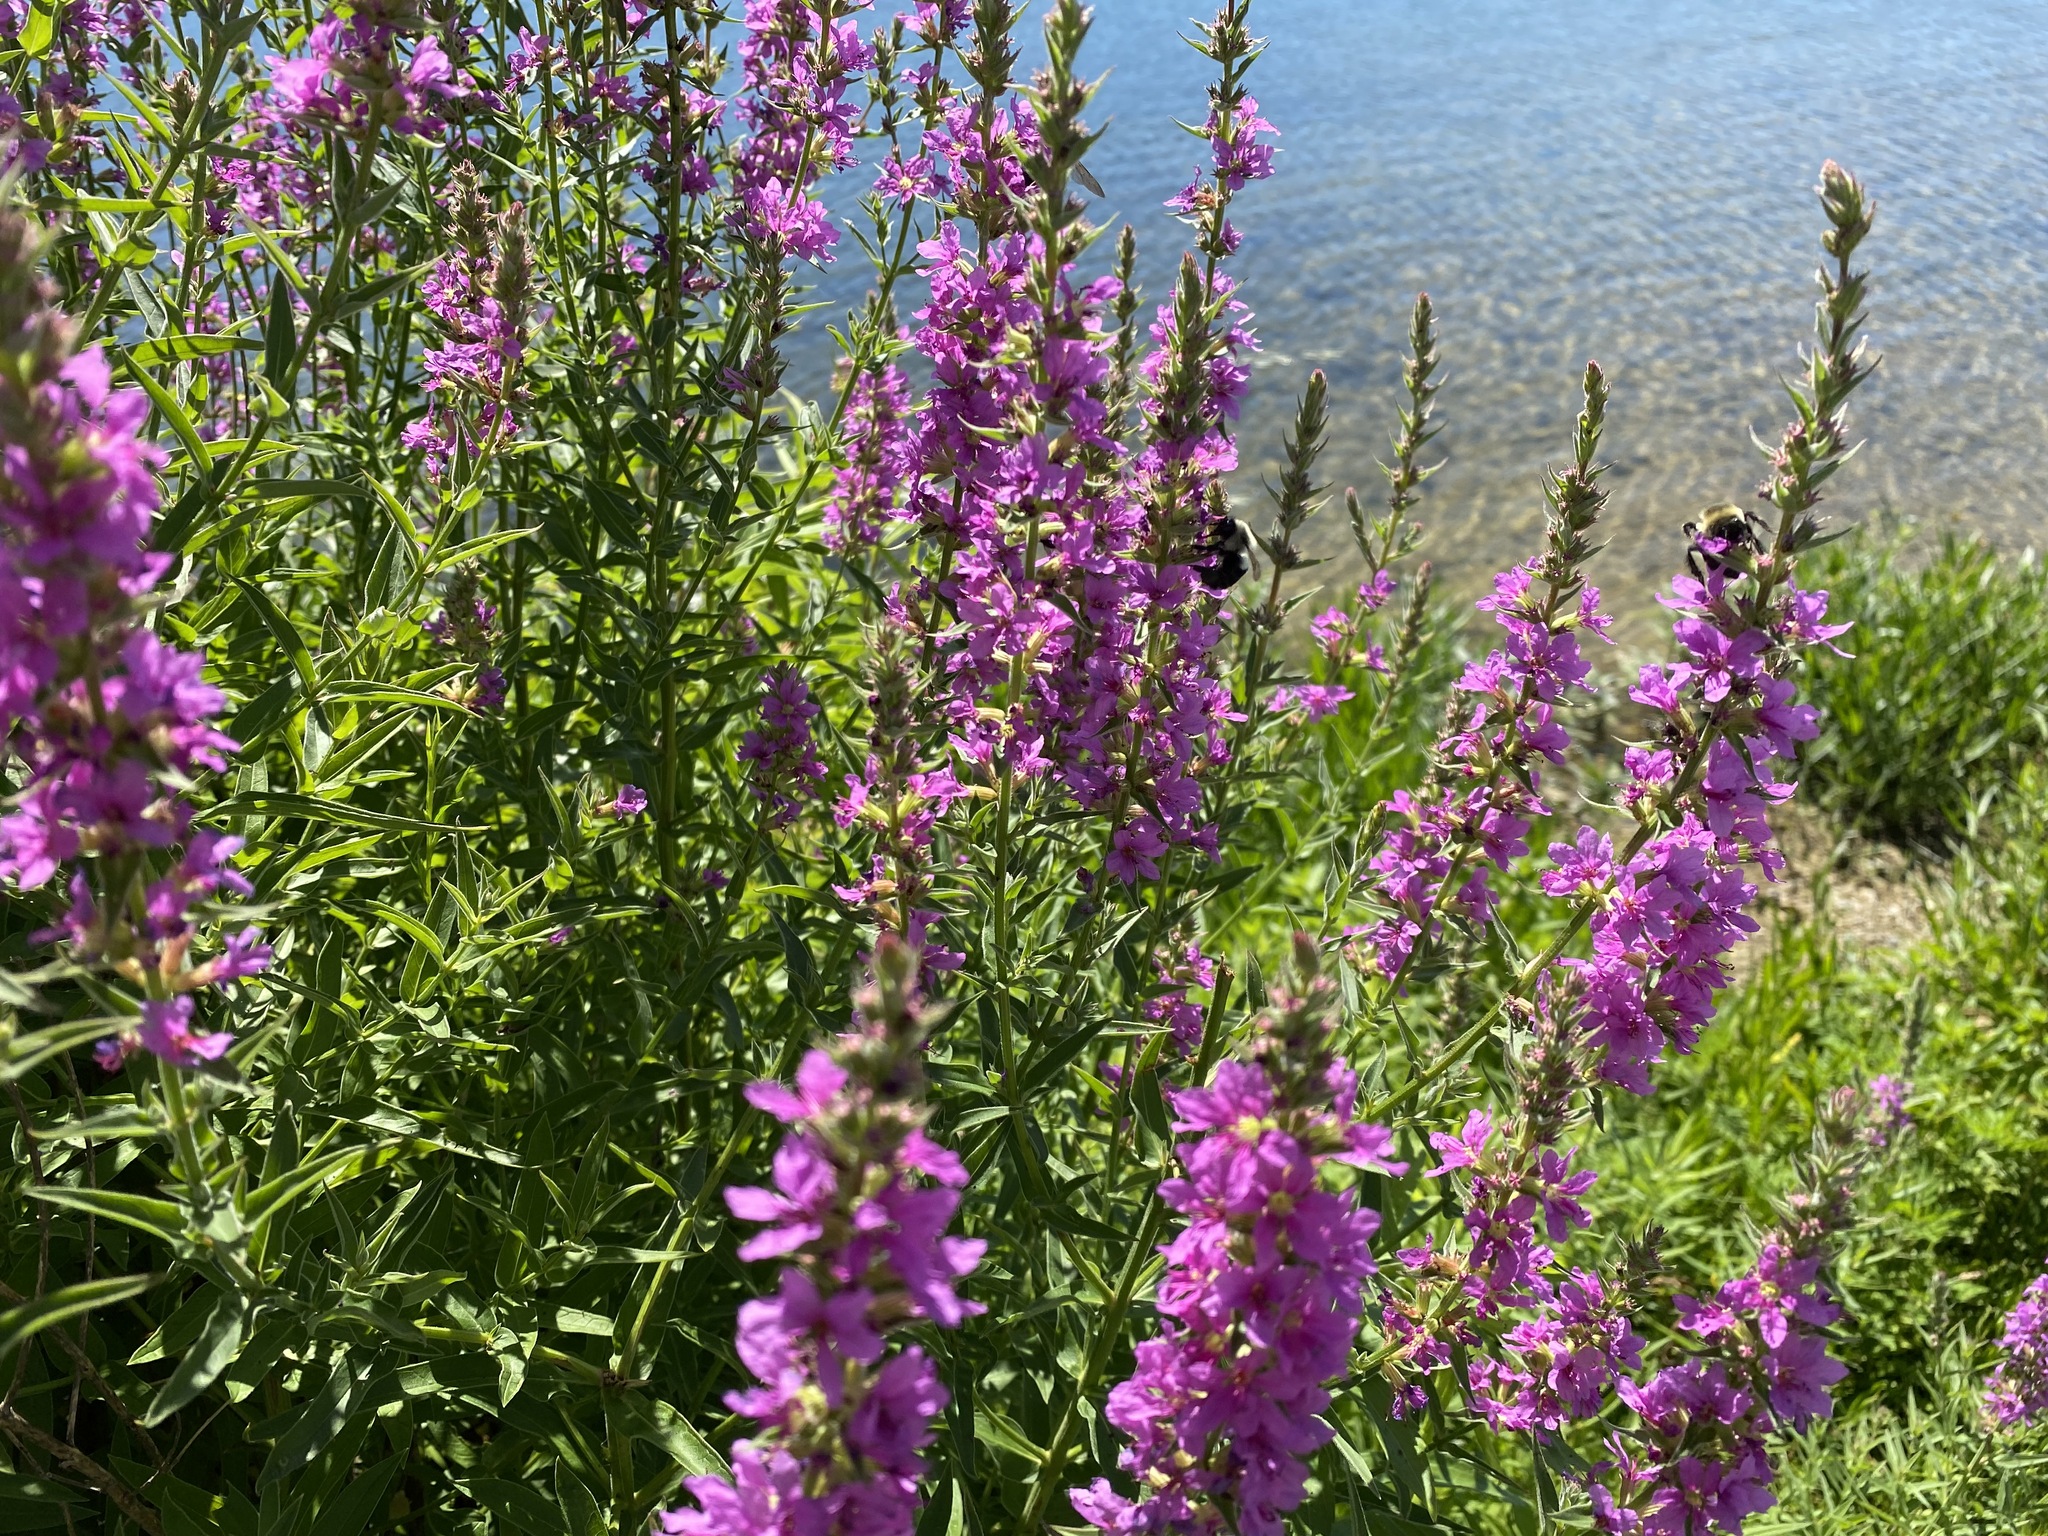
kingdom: Plantae
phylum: Tracheophyta
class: Magnoliopsida
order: Myrtales
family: Lythraceae
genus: Lythrum
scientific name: Lythrum salicaria
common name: Purple loosestrife
